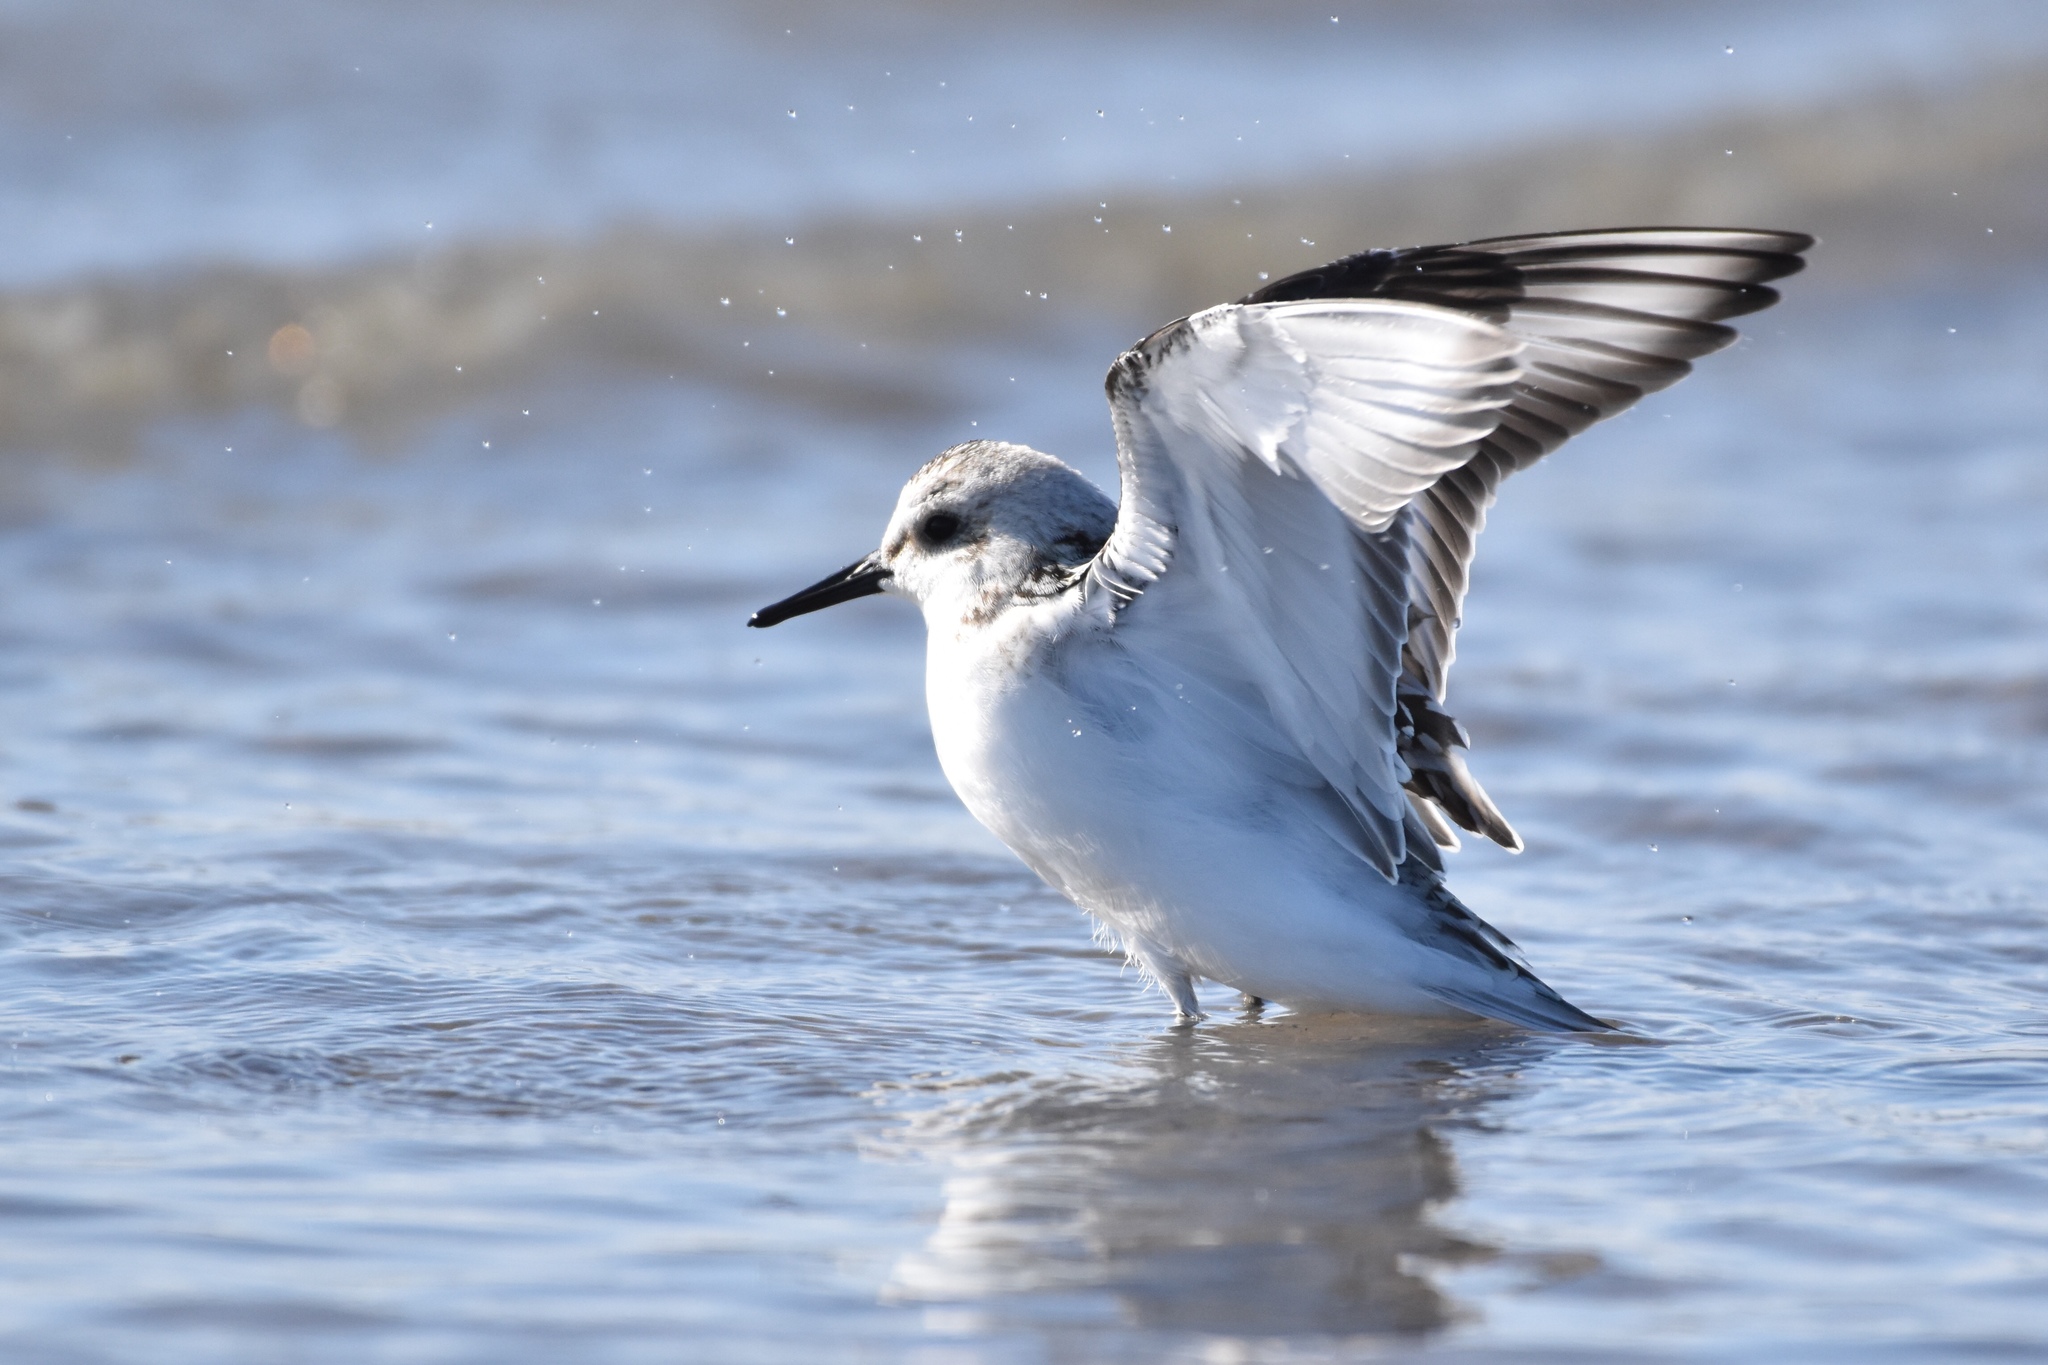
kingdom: Animalia
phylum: Chordata
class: Aves
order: Charadriiformes
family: Scolopacidae
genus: Calidris
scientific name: Calidris alba
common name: Sanderling
